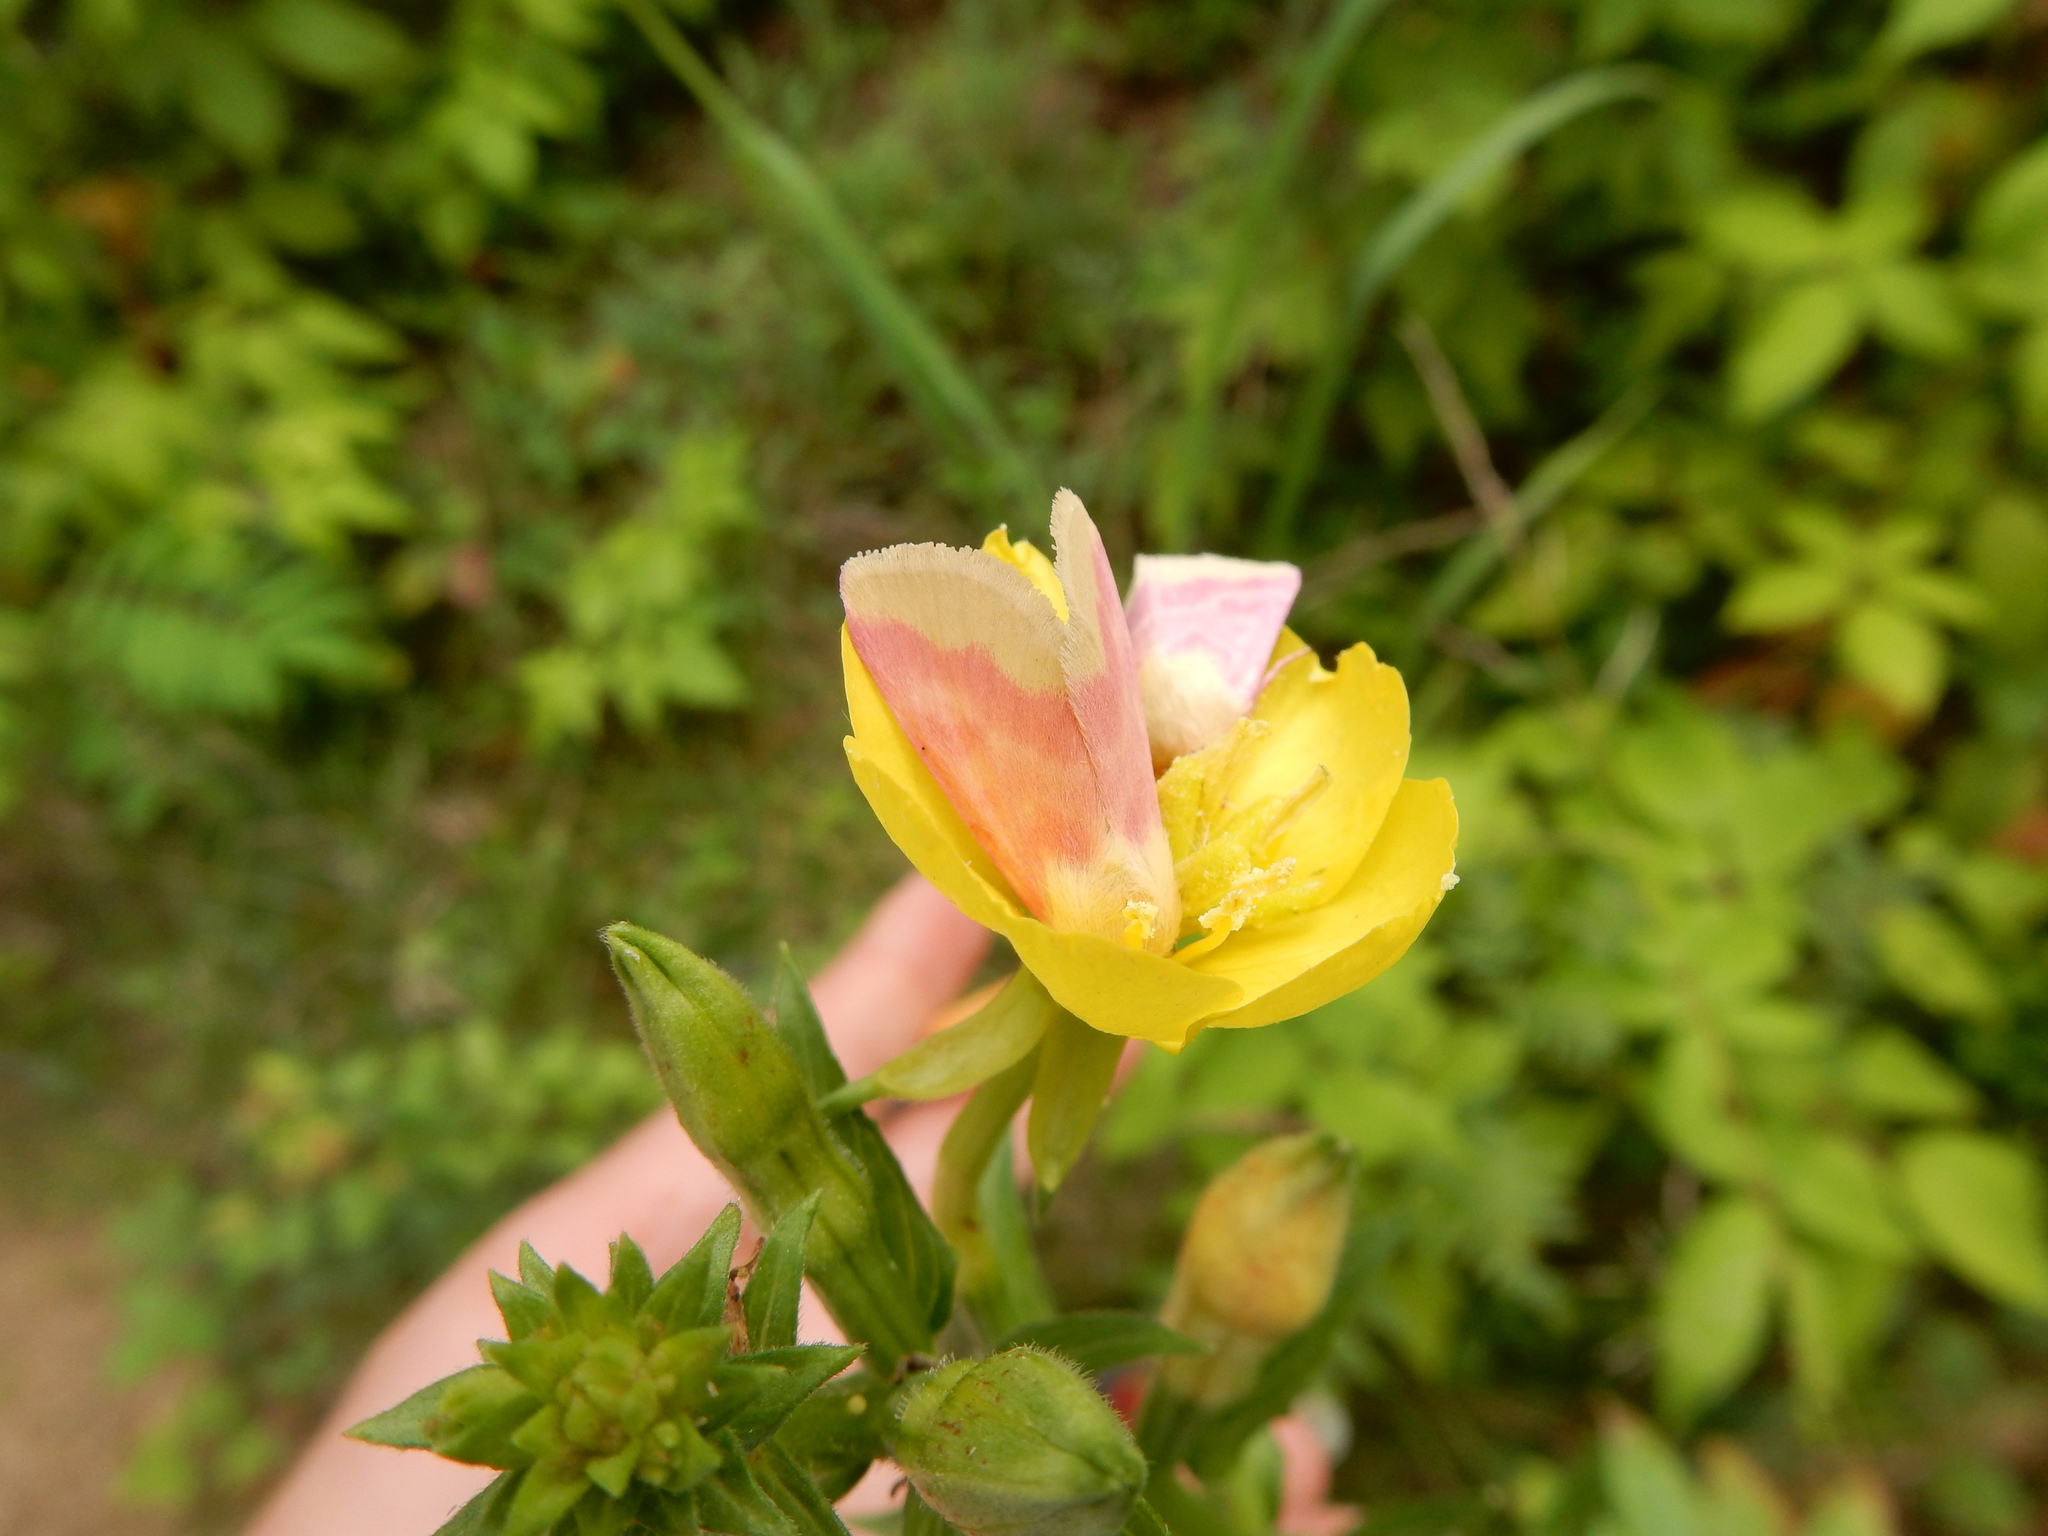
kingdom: Animalia
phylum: Arthropoda
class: Insecta
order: Lepidoptera
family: Noctuidae
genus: Schinia
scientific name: Schinia florida
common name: Primrose moth
